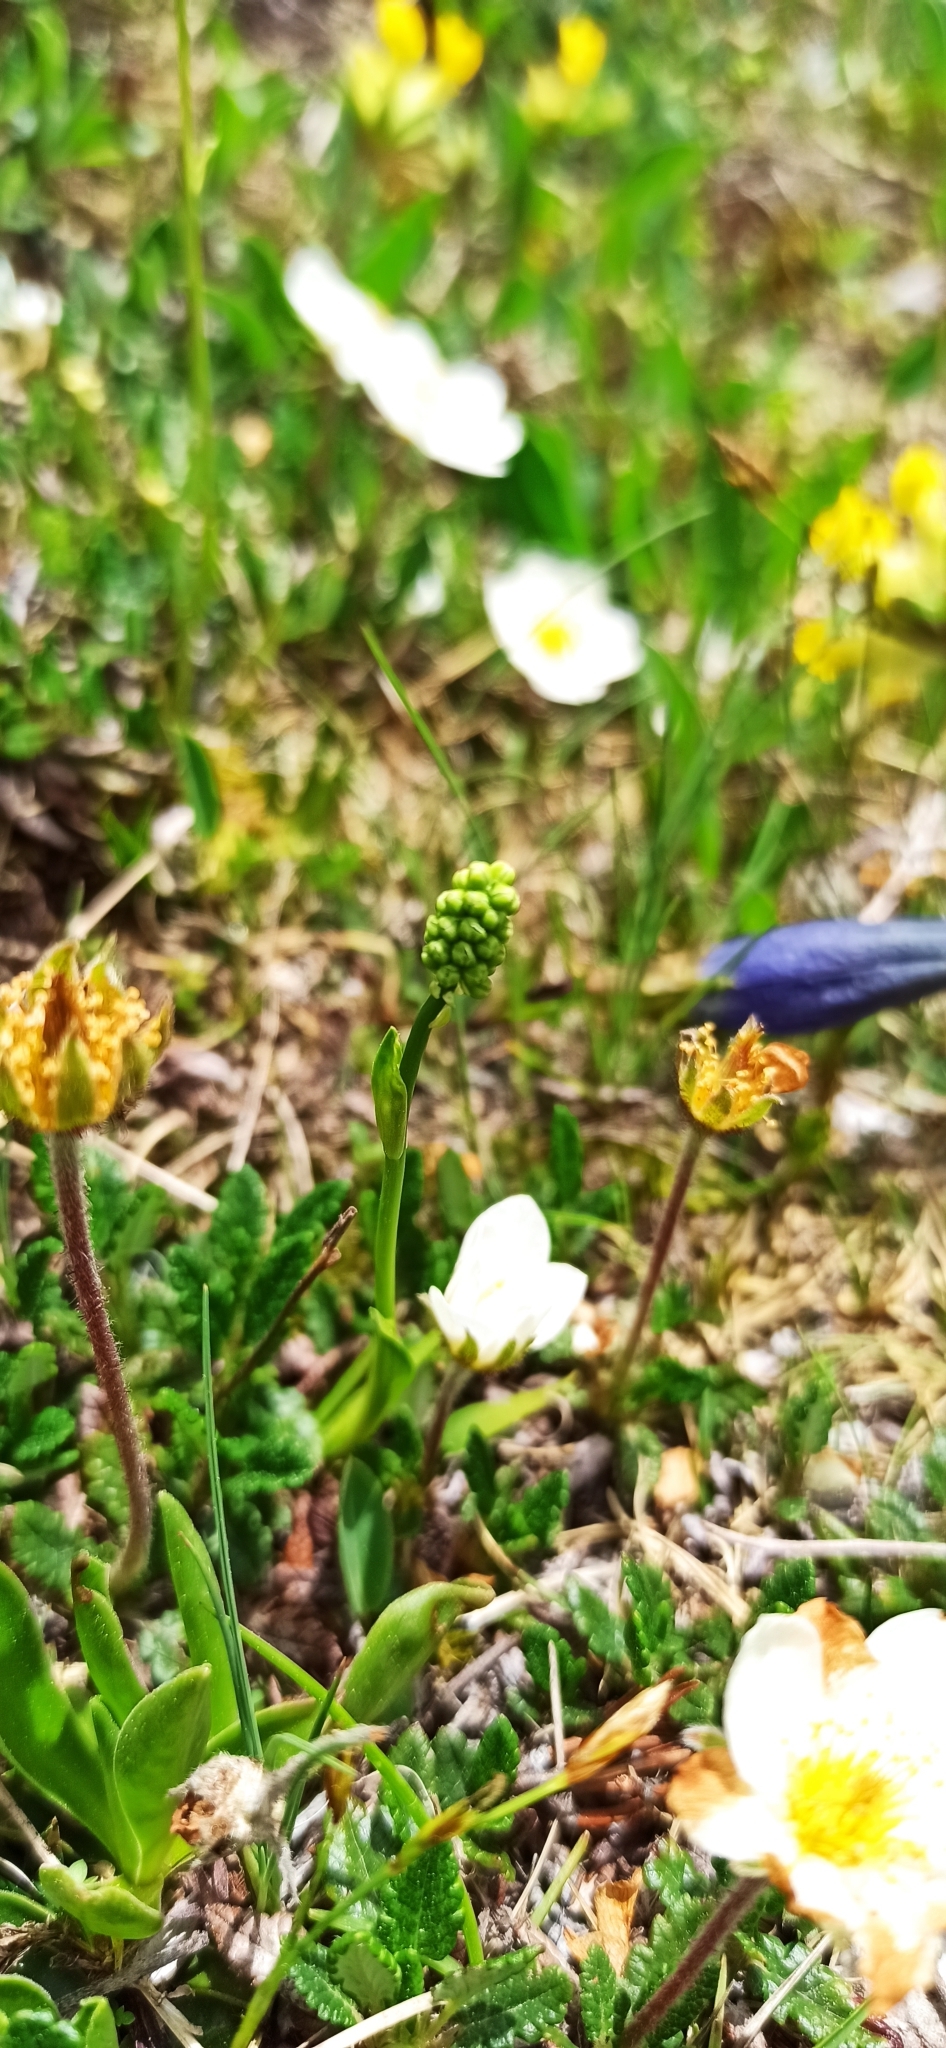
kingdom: Plantae
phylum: Tracheophyta
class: Liliopsida
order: Alismatales
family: Tofieldiaceae
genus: Tofieldia
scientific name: Tofieldia calyculata
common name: German-asphodel
